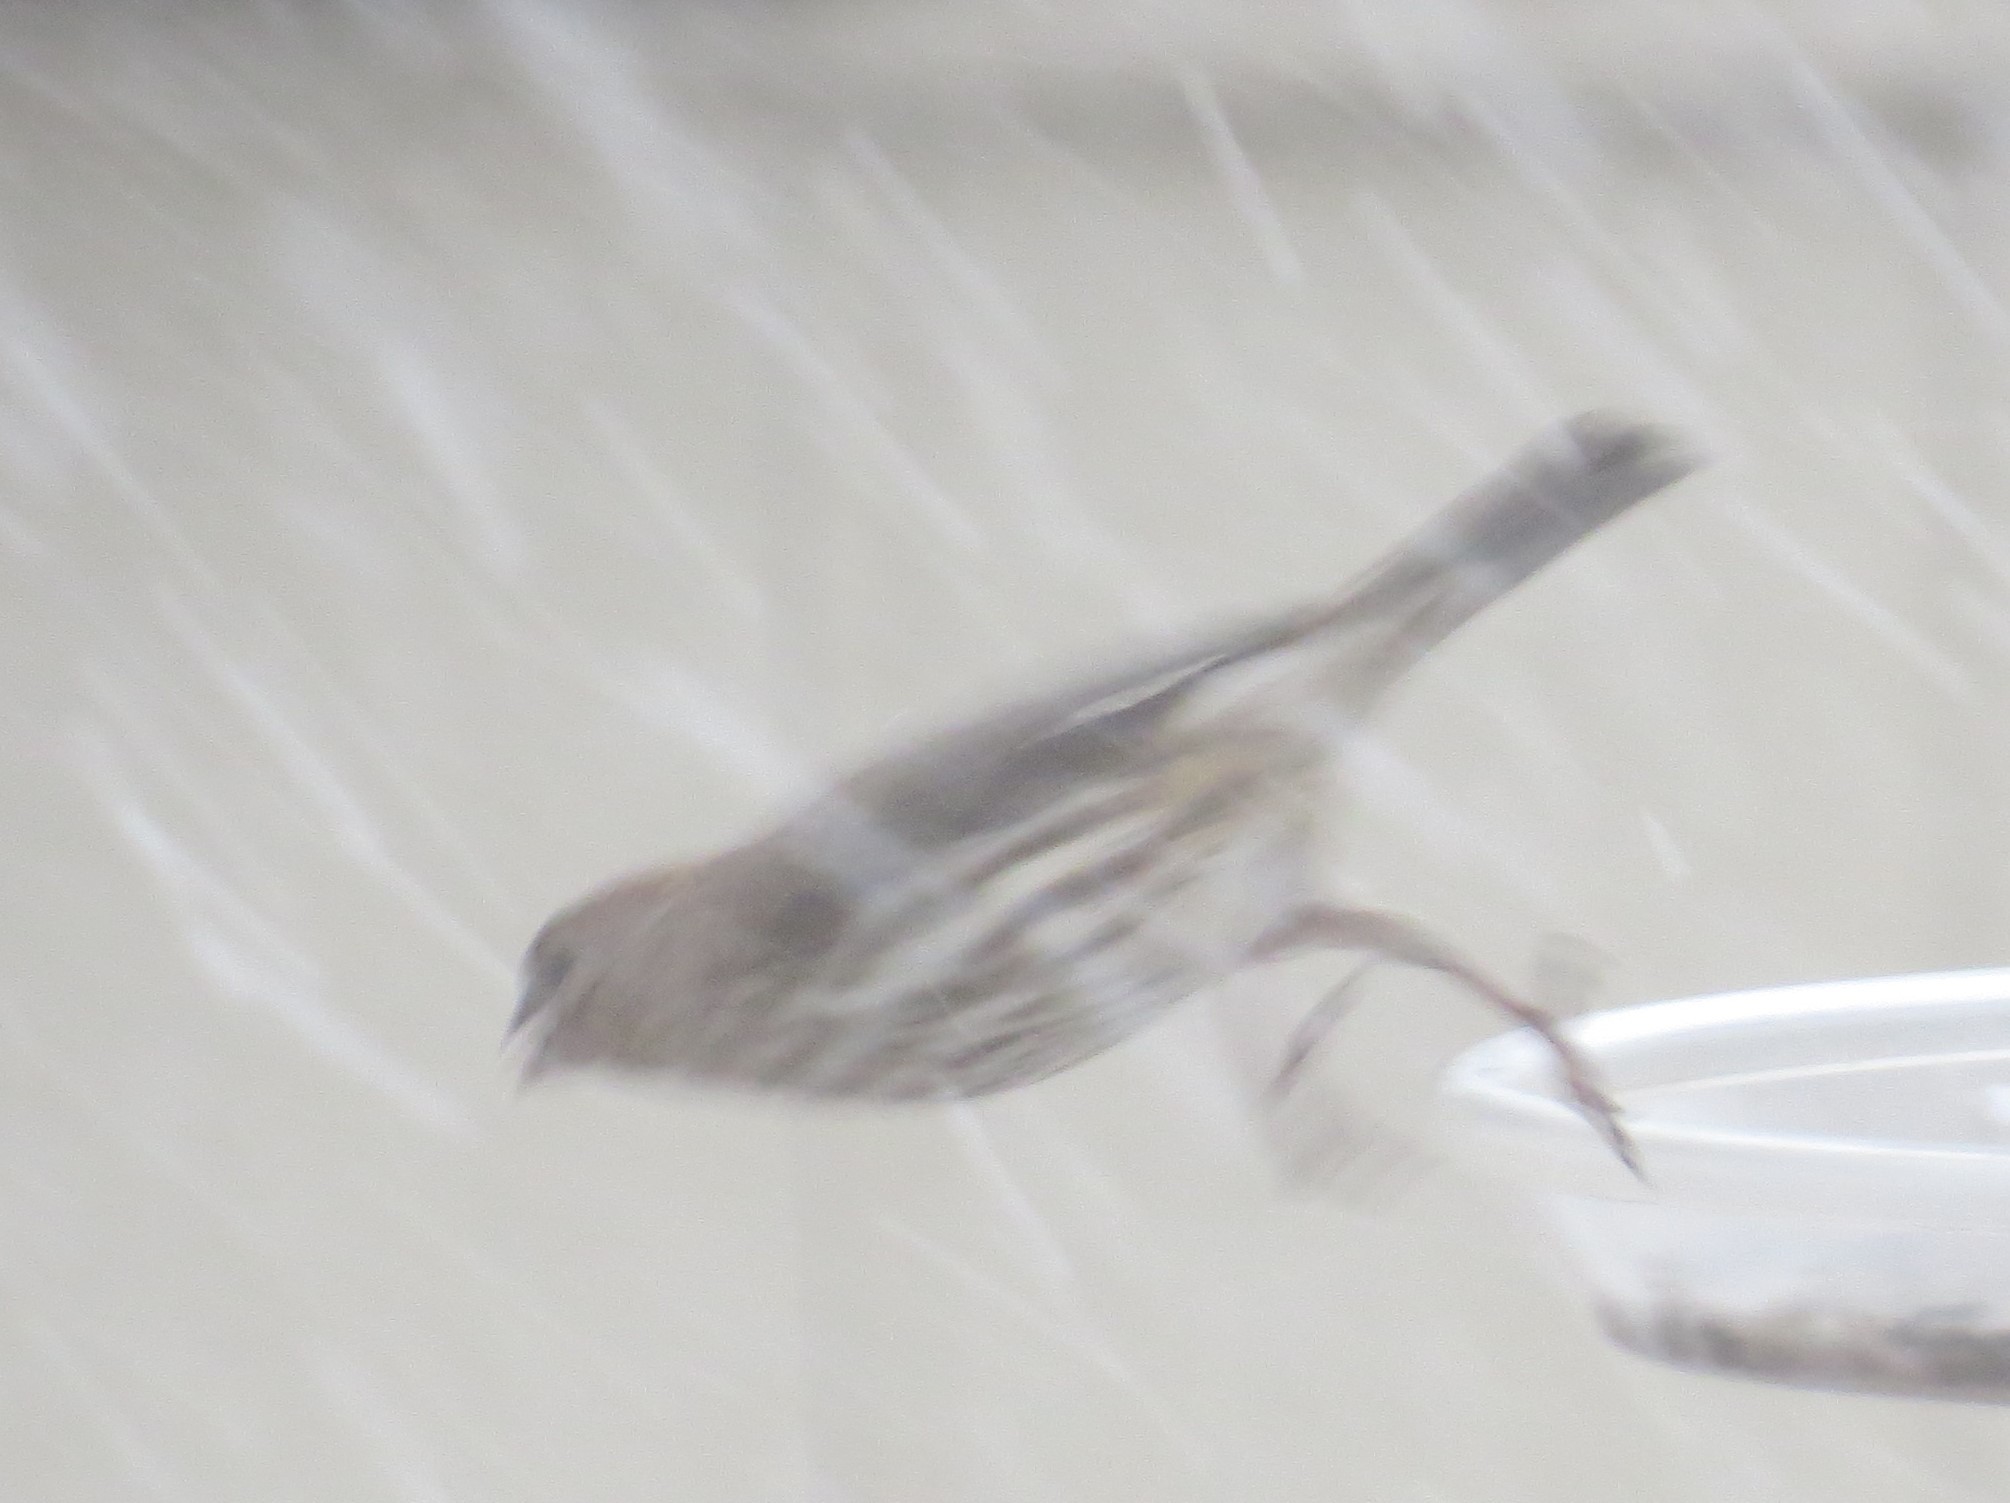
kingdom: Animalia
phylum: Chordata
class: Aves
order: Passeriformes
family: Fringillidae
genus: Haemorhous
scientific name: Haemorhous mexicanus
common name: House finch
